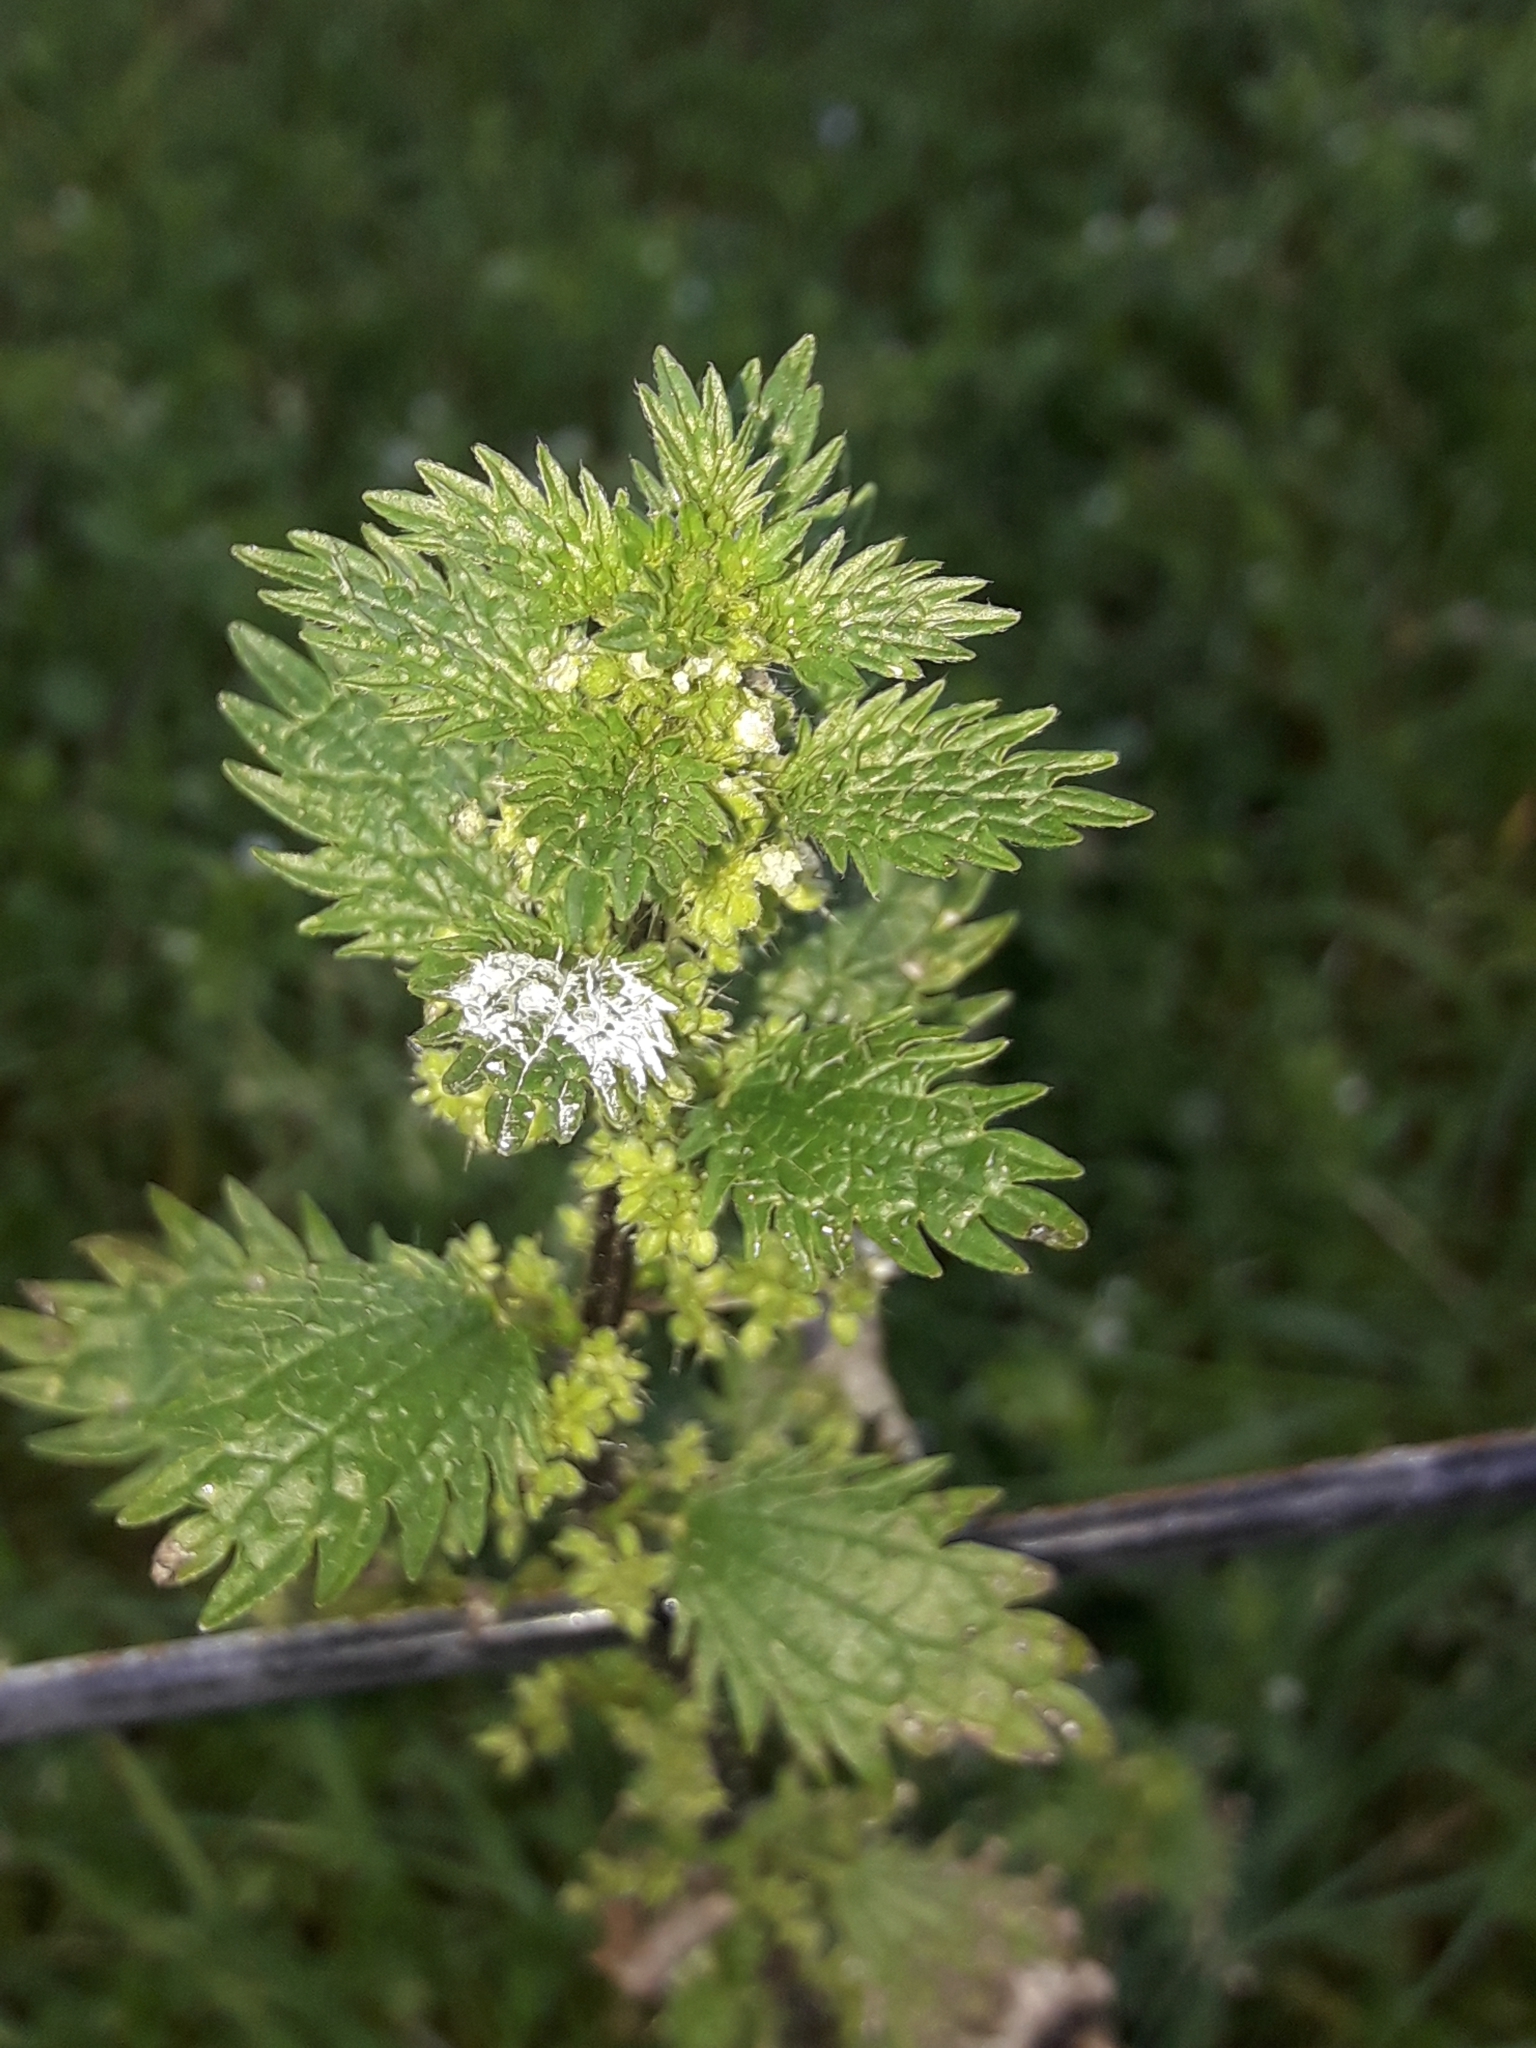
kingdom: Plantae
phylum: Tracheophyta
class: Magnoliopsida
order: Rosales
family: Urticaceae
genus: Urtica
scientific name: Urtica urens
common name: Dwarf nettle
